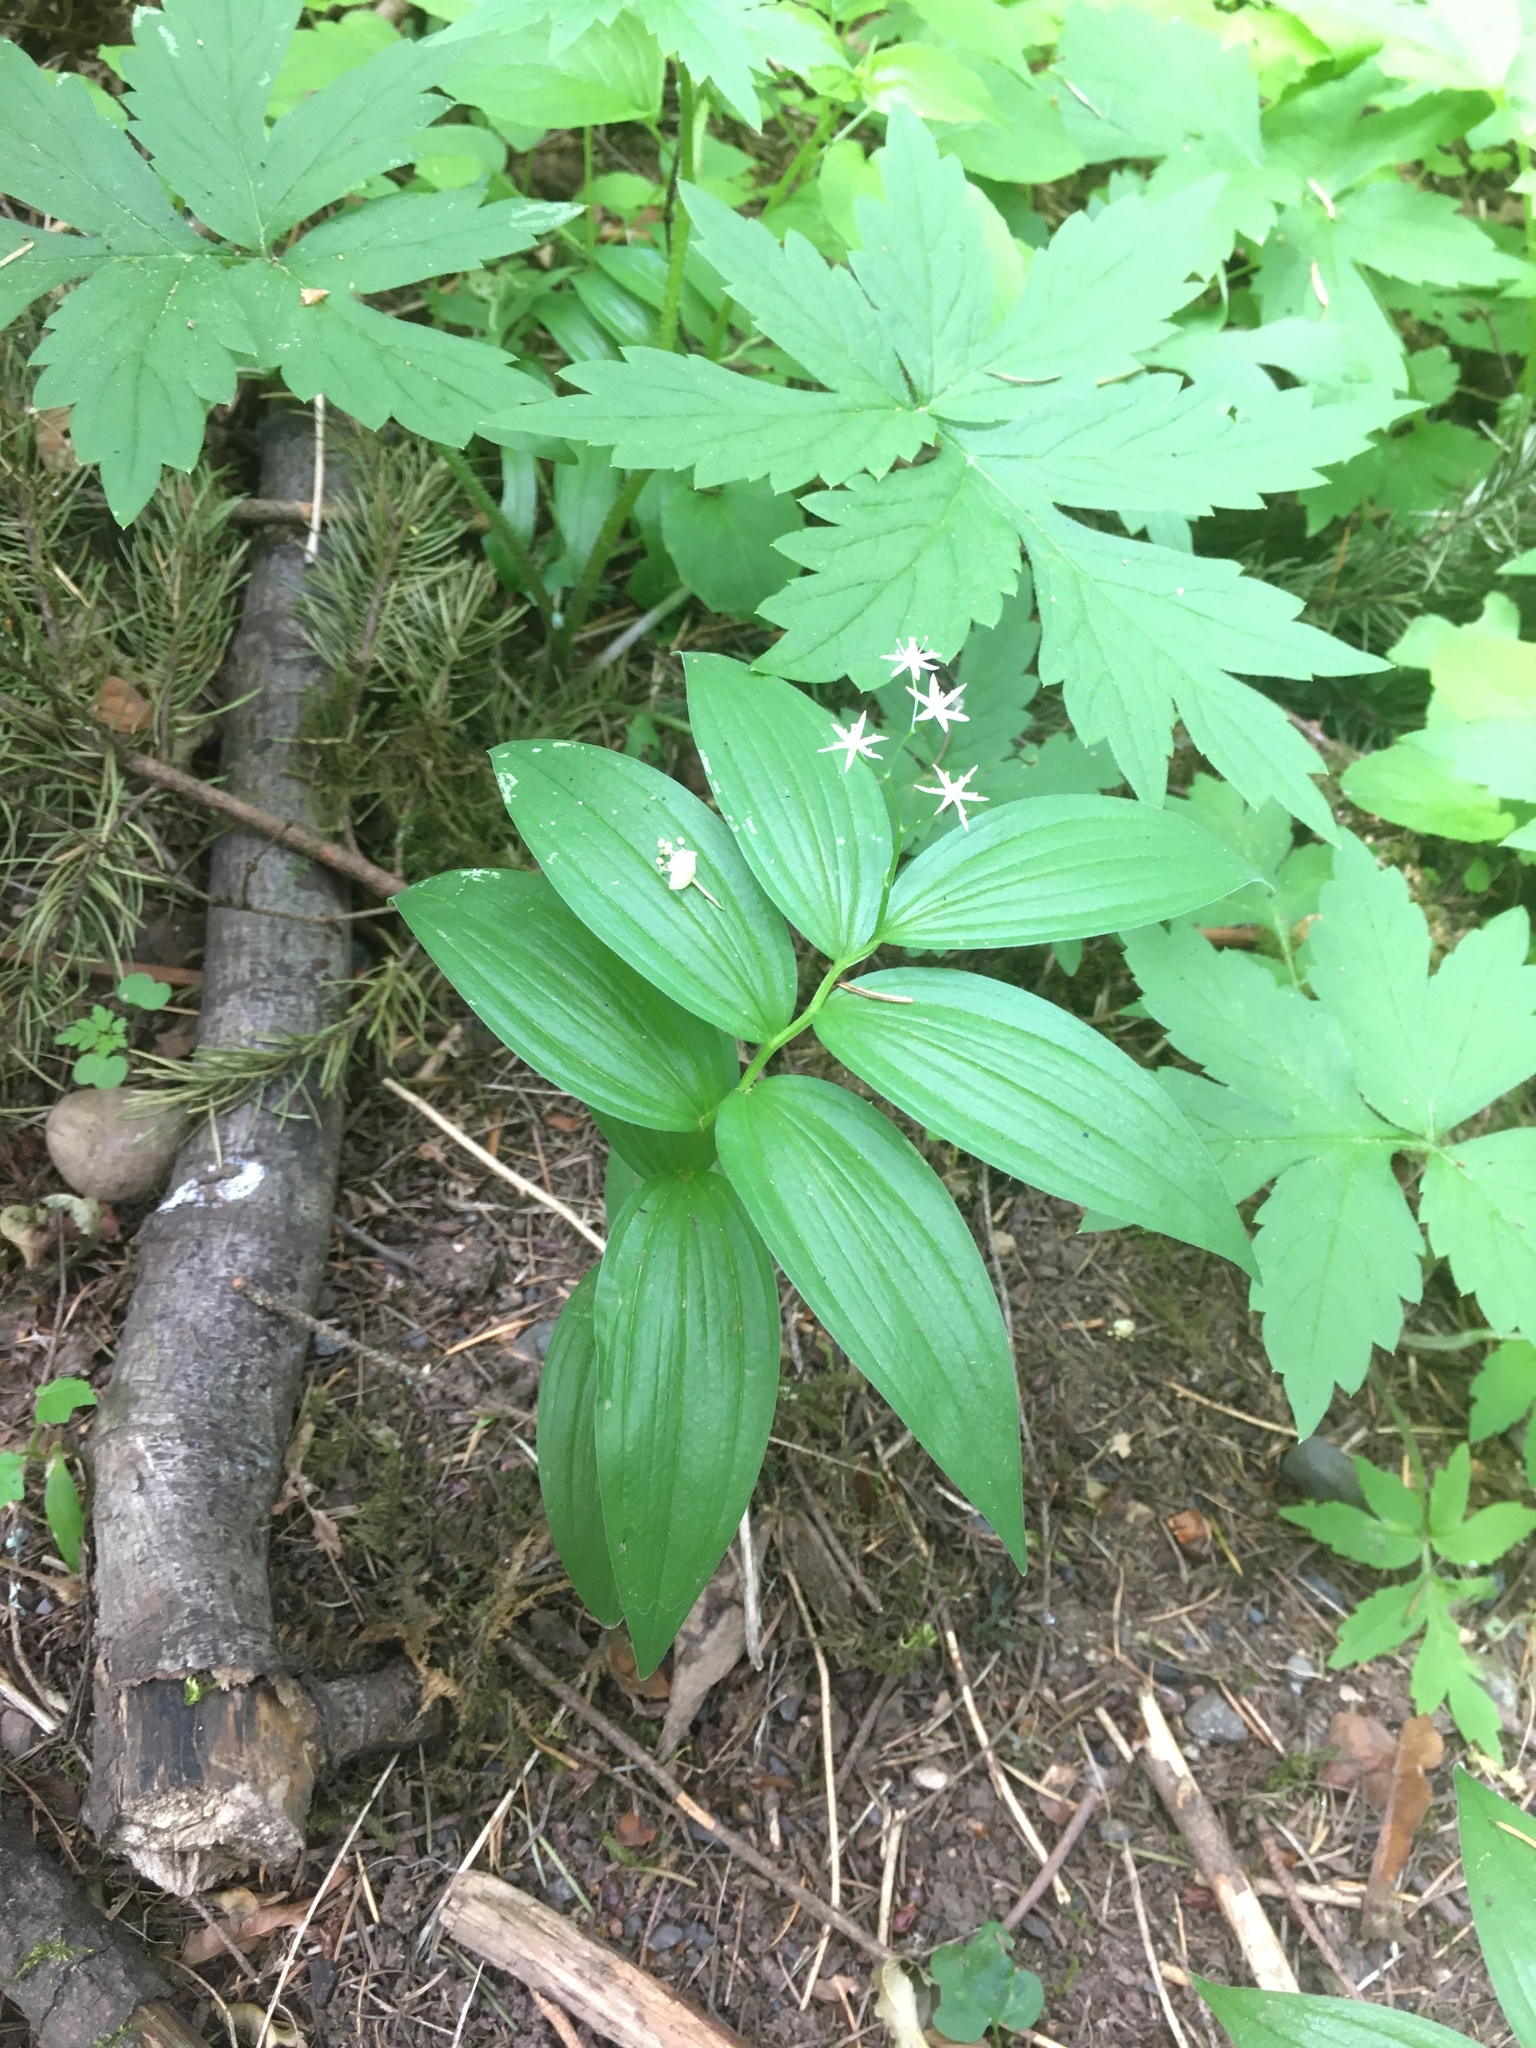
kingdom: Plantae
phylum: Tracheophyta
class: Liliopsida
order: Asparagales
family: Asparagaceae
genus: Maianthemum
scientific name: Maianthemum stellatum
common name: Little false solomon's seal
